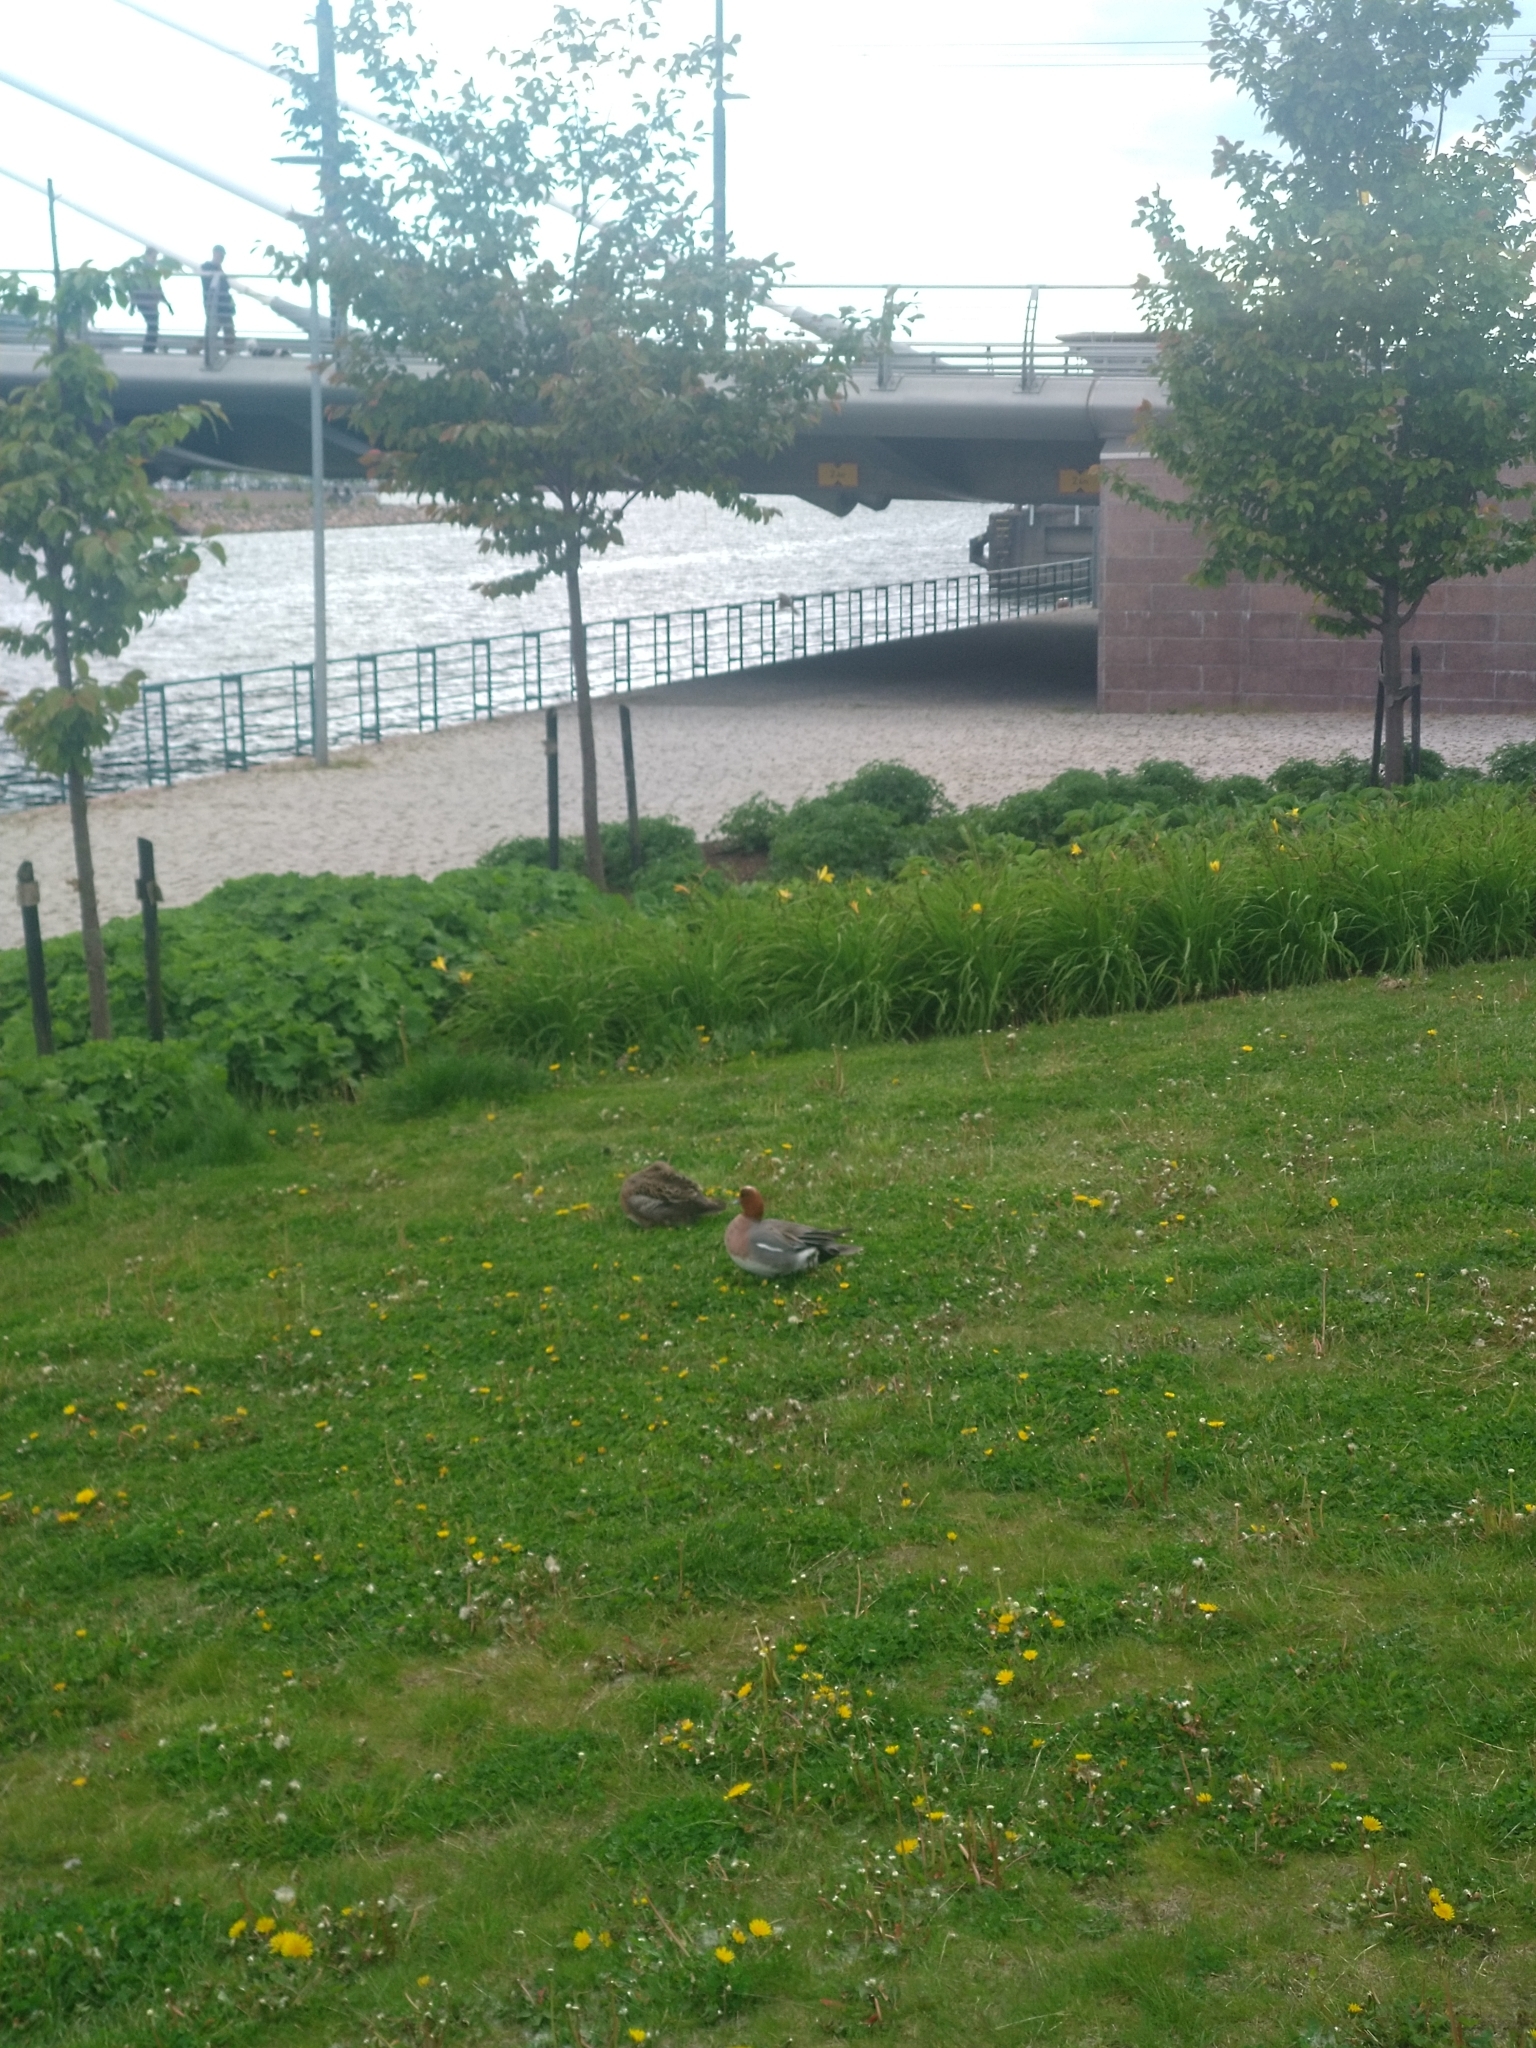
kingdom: Animalia
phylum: Chordata
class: Aves
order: Anseriformes
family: Anatidae
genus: Mareca
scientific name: Mareca penelope
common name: Eurasian wigeon
